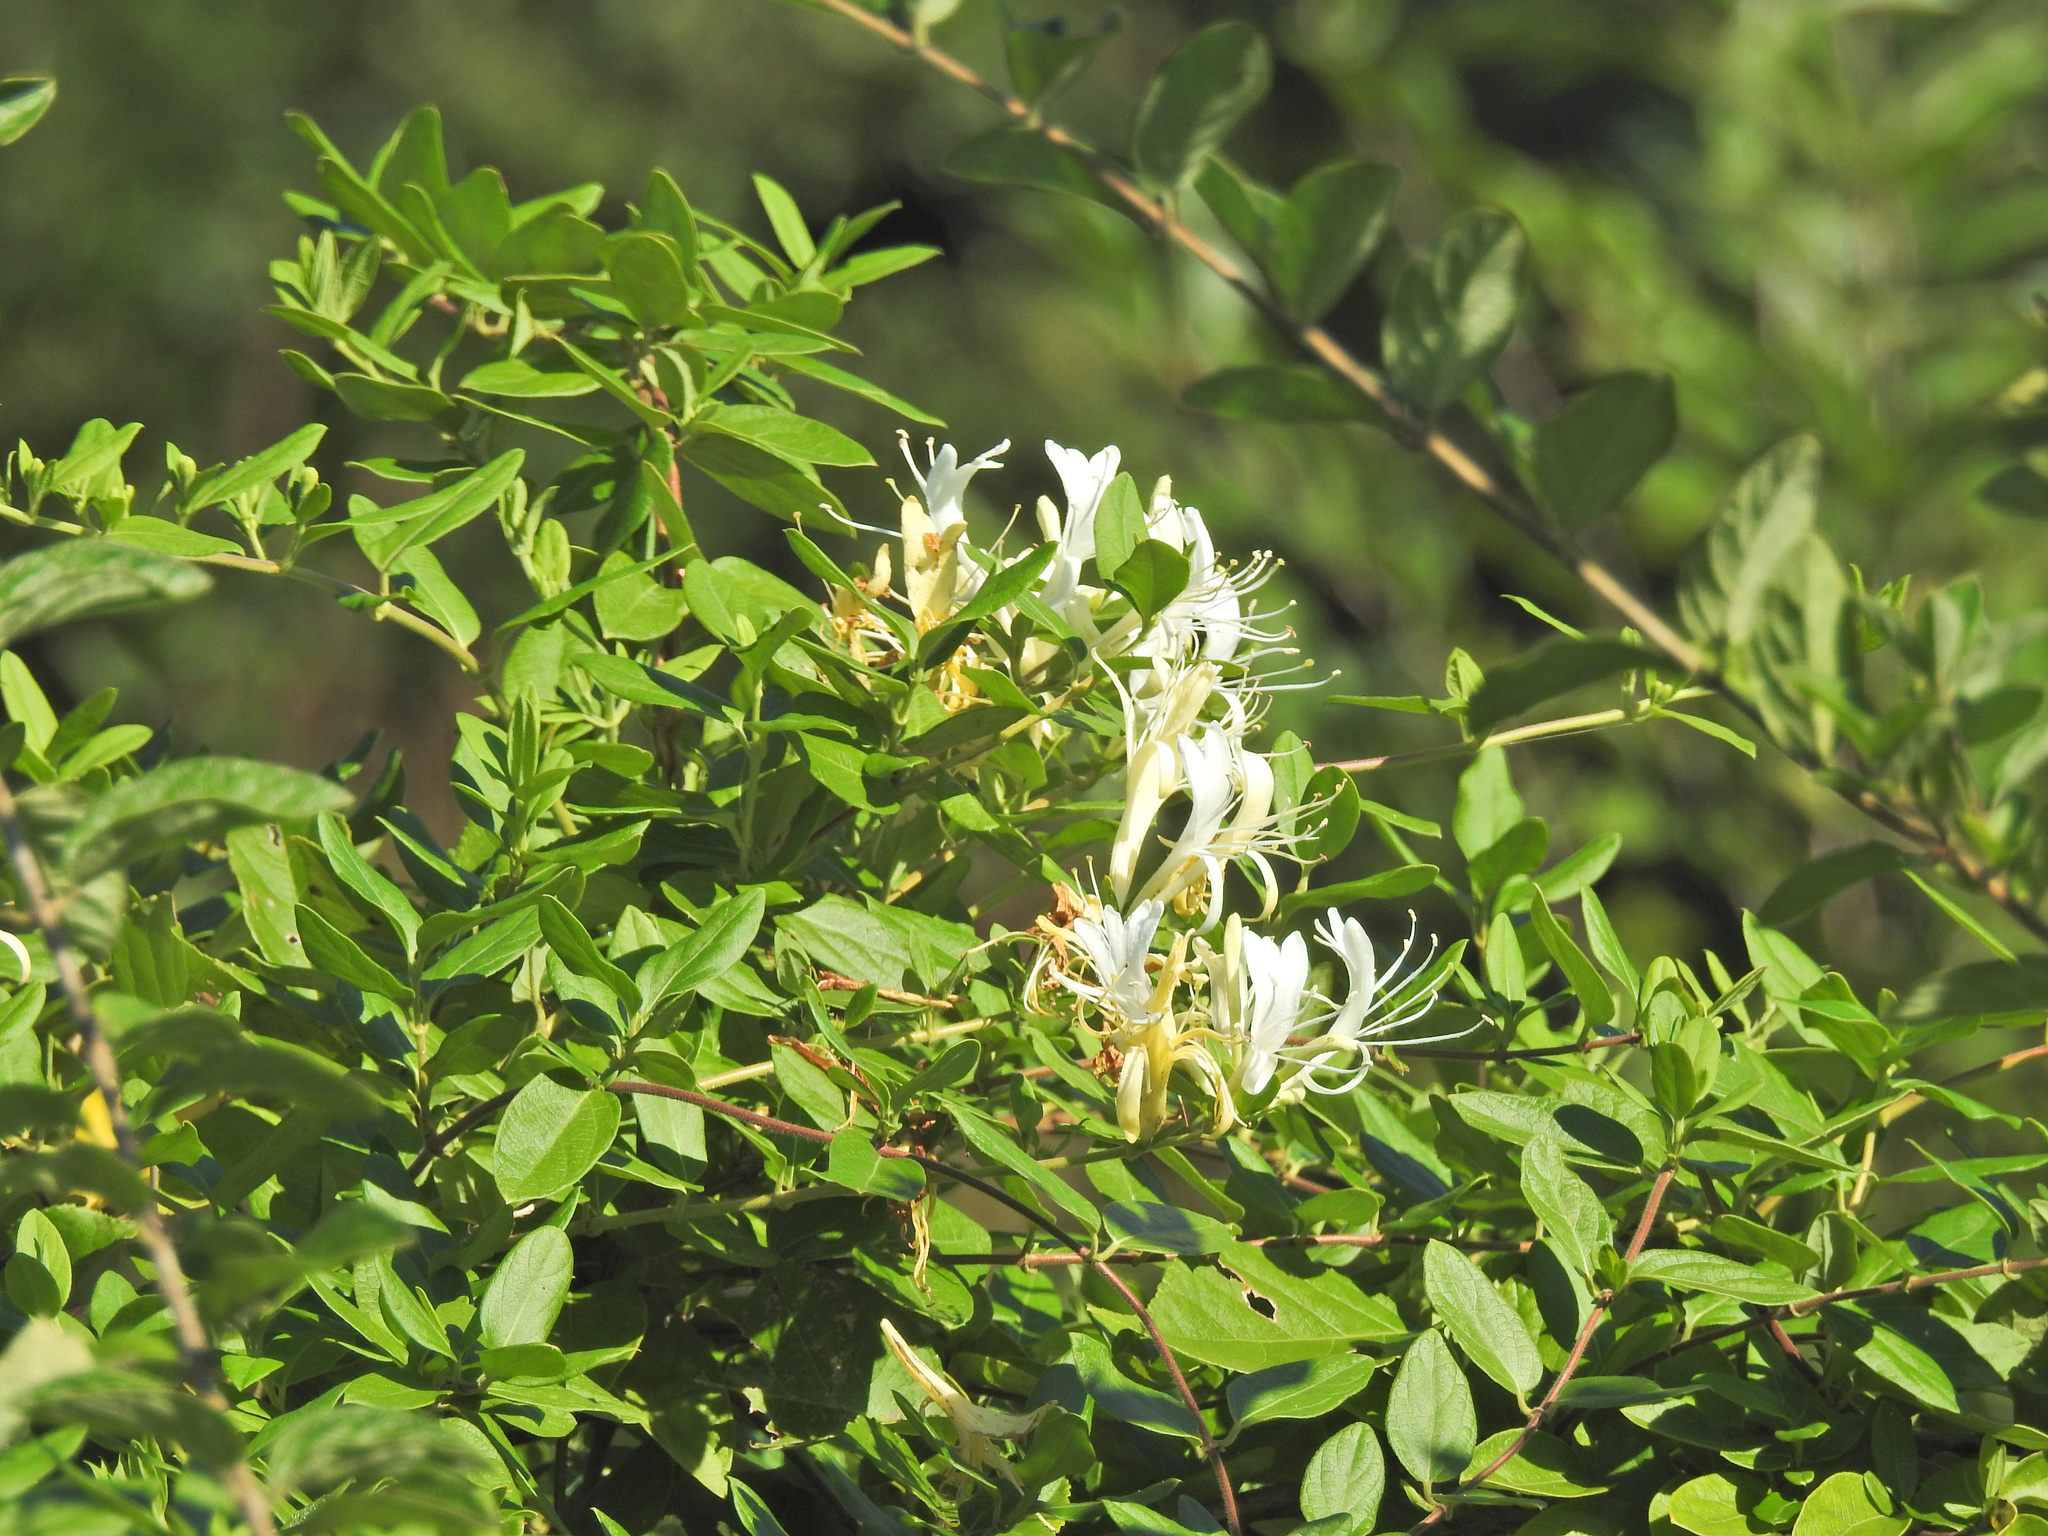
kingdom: Plantae
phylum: Tracheophyta
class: Magnoliopsida
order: Dipsacales
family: Caprifoliaceae
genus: Lonicera
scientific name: Lonicera japonica
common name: Japanese honeysuckle
